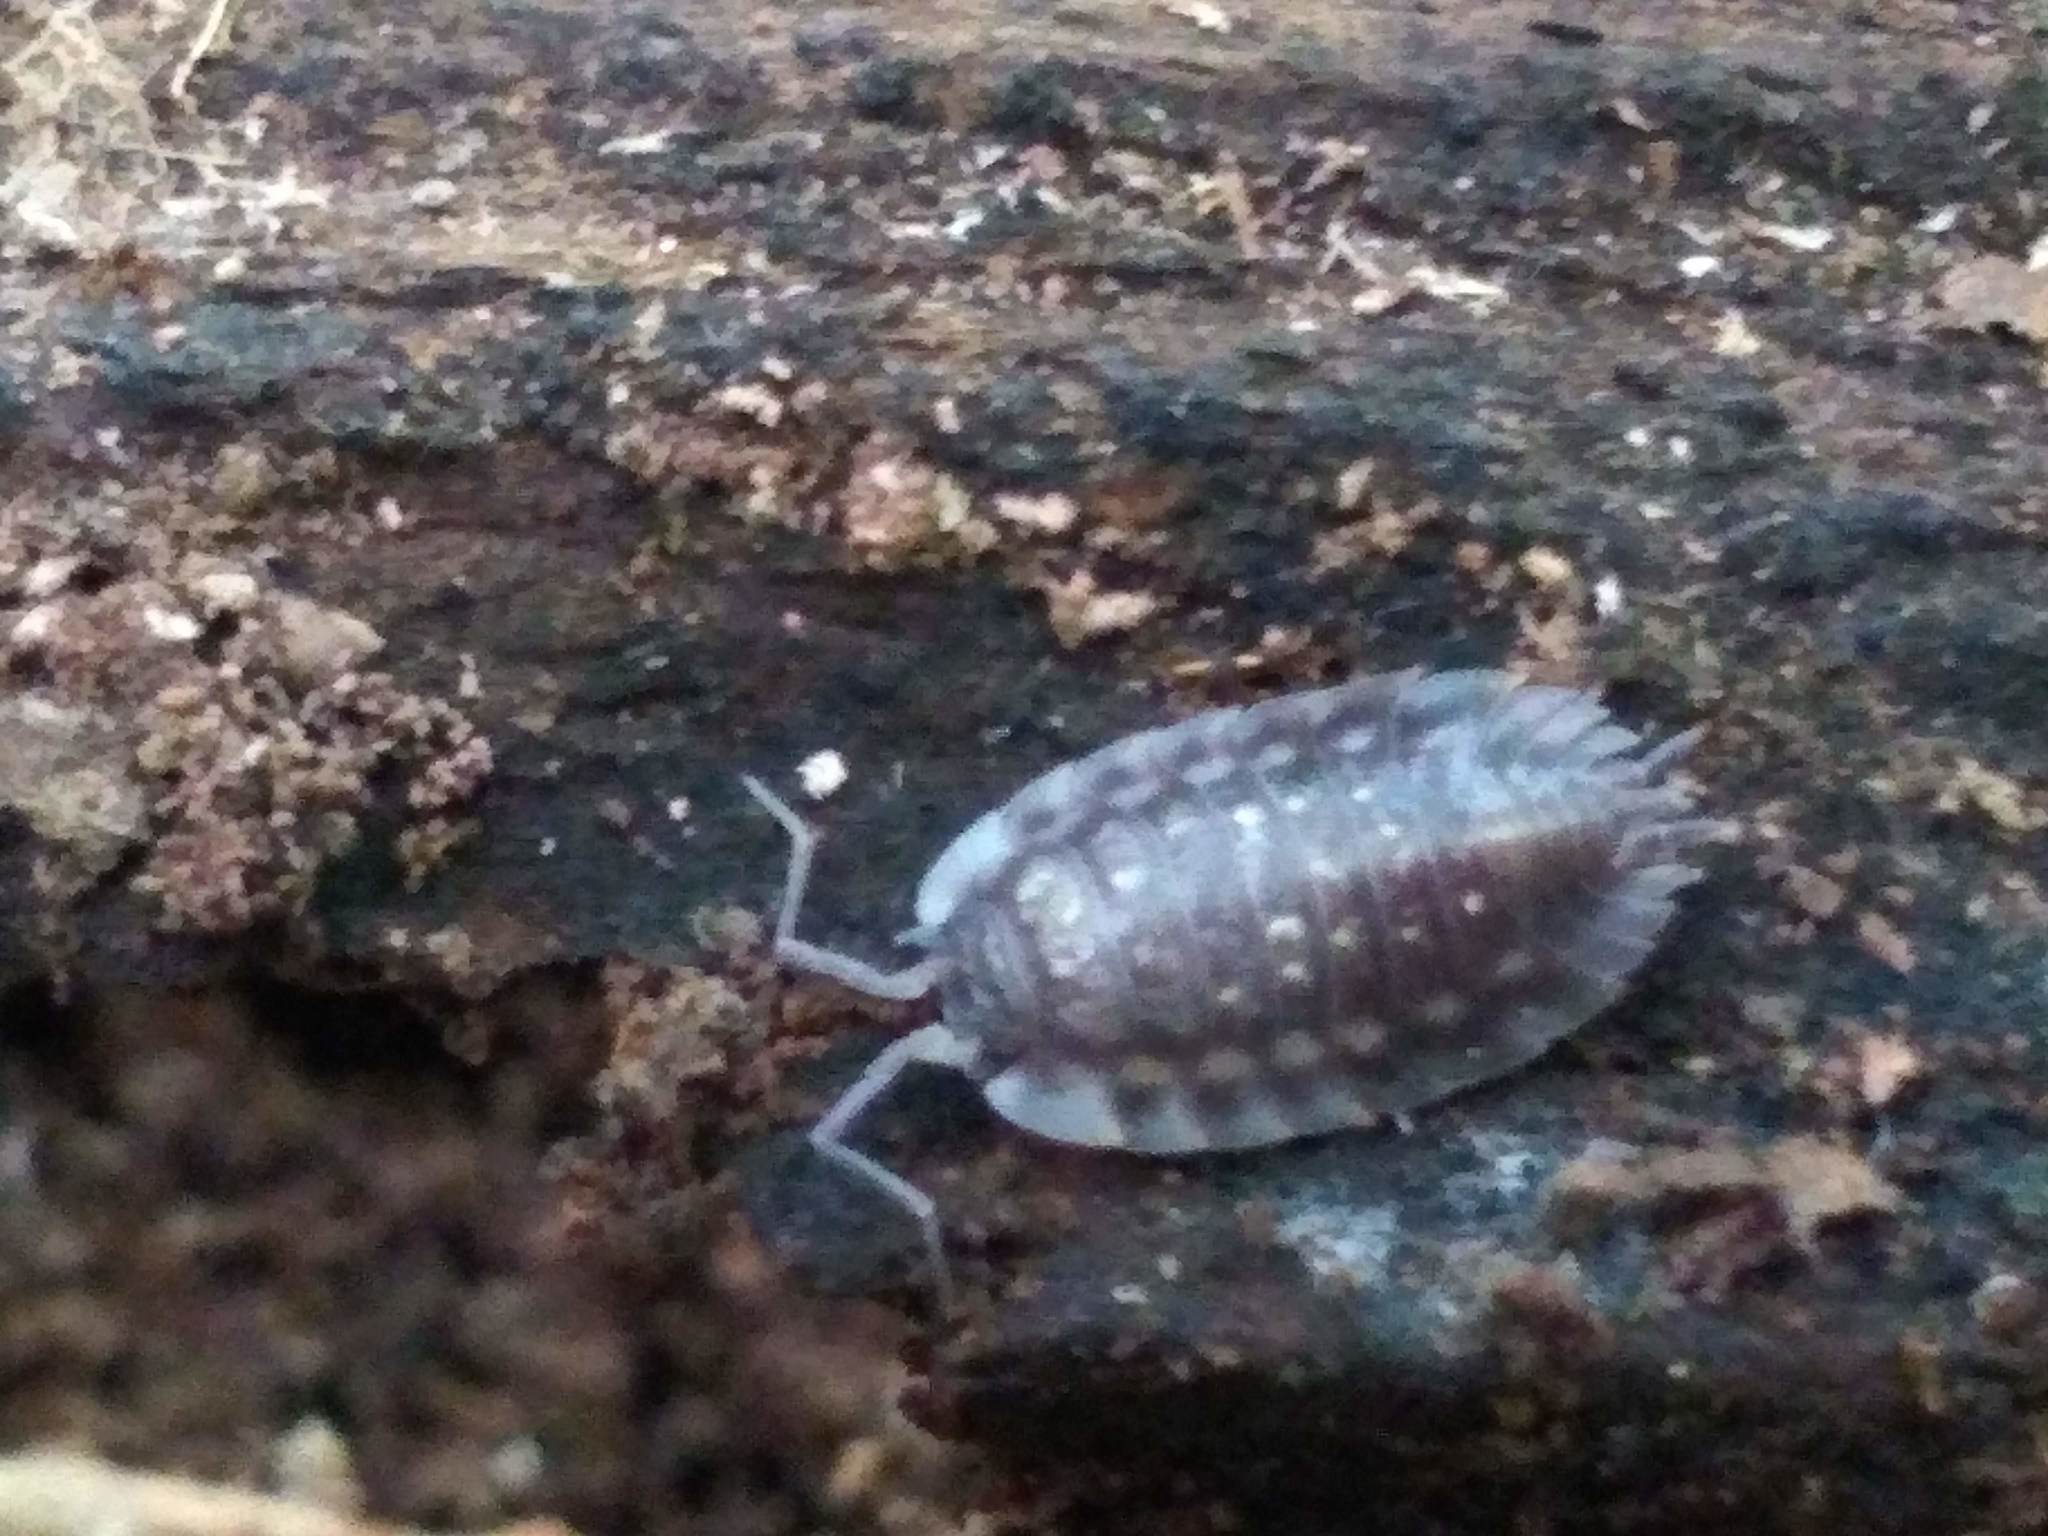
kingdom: Animalia
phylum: Arthropoda
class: Malacostraca
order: Isopoda
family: Oniscidae
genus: Oniscus
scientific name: Oniscus asellus
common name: Common shiny woodlouse
